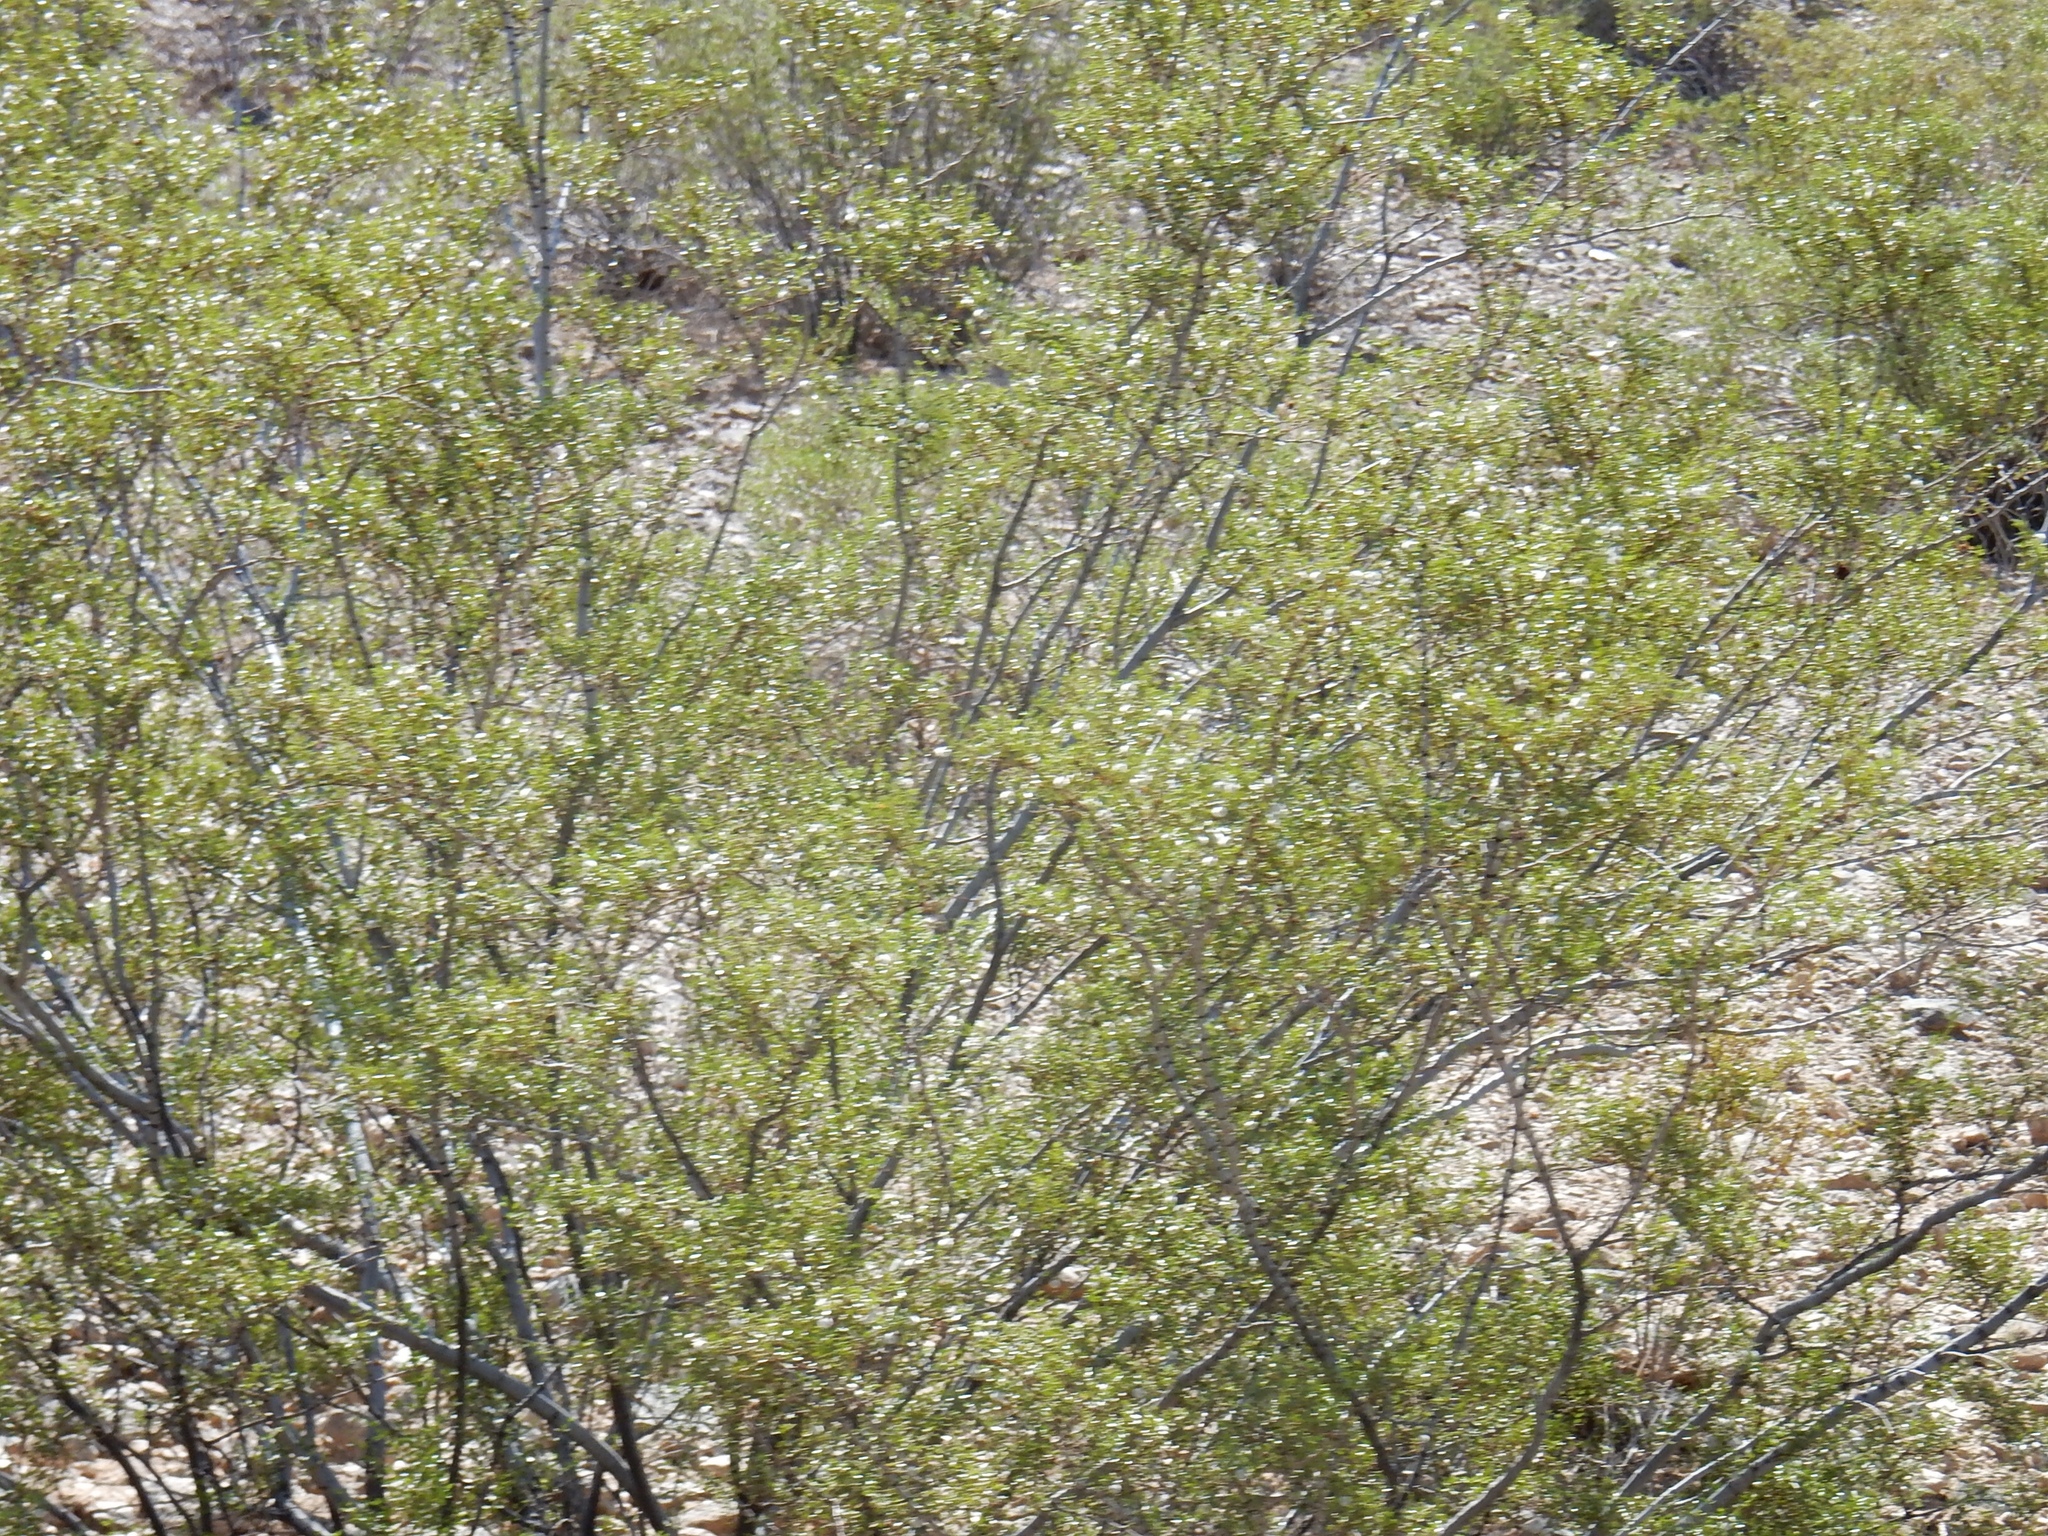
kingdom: Plantae
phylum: Tracheophyta
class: Magnoliopsida
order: Zygophyllales
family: Zygophyllaceae
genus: Larrea
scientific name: Larrea tridentata
